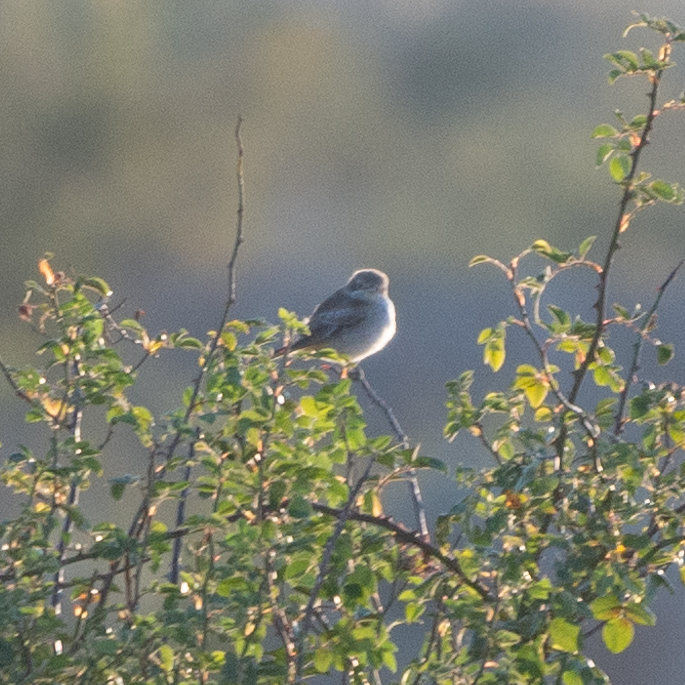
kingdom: Animalia
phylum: Chordata
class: Aves
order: Passeriformes
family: Laniidae
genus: Lanius
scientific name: Lanius senator
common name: Woodchat shrike
